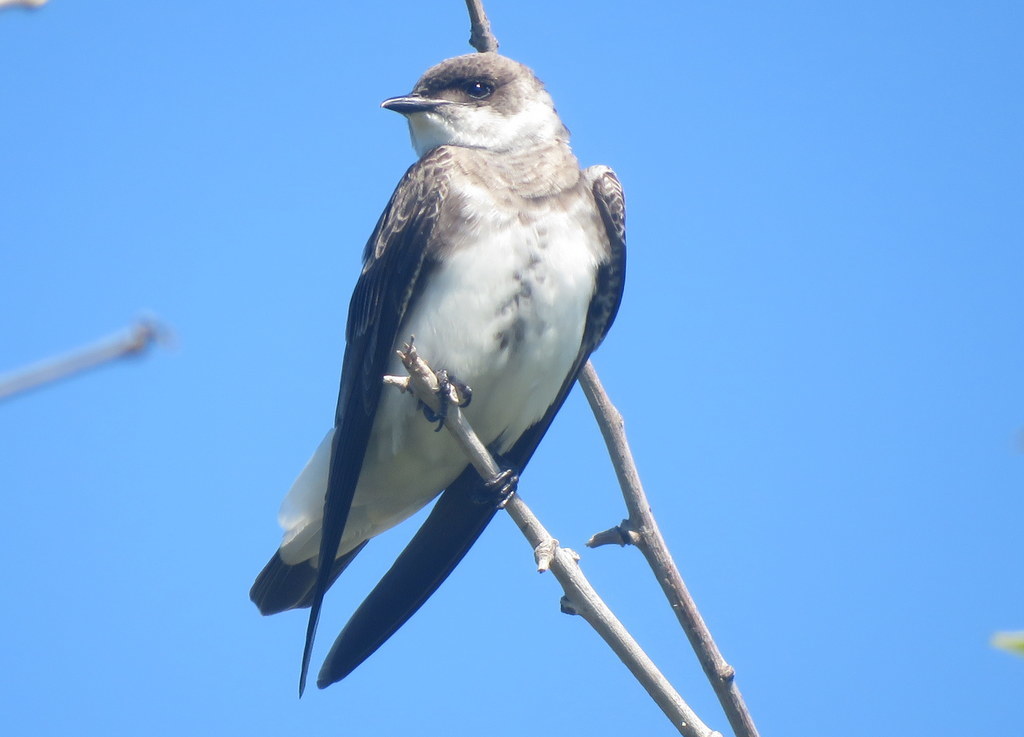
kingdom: Animalia
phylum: Chordata
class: Aves
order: Passeriformes
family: Hirundinidae
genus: Progne
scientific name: Progne tapera
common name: Brown-chested martin
